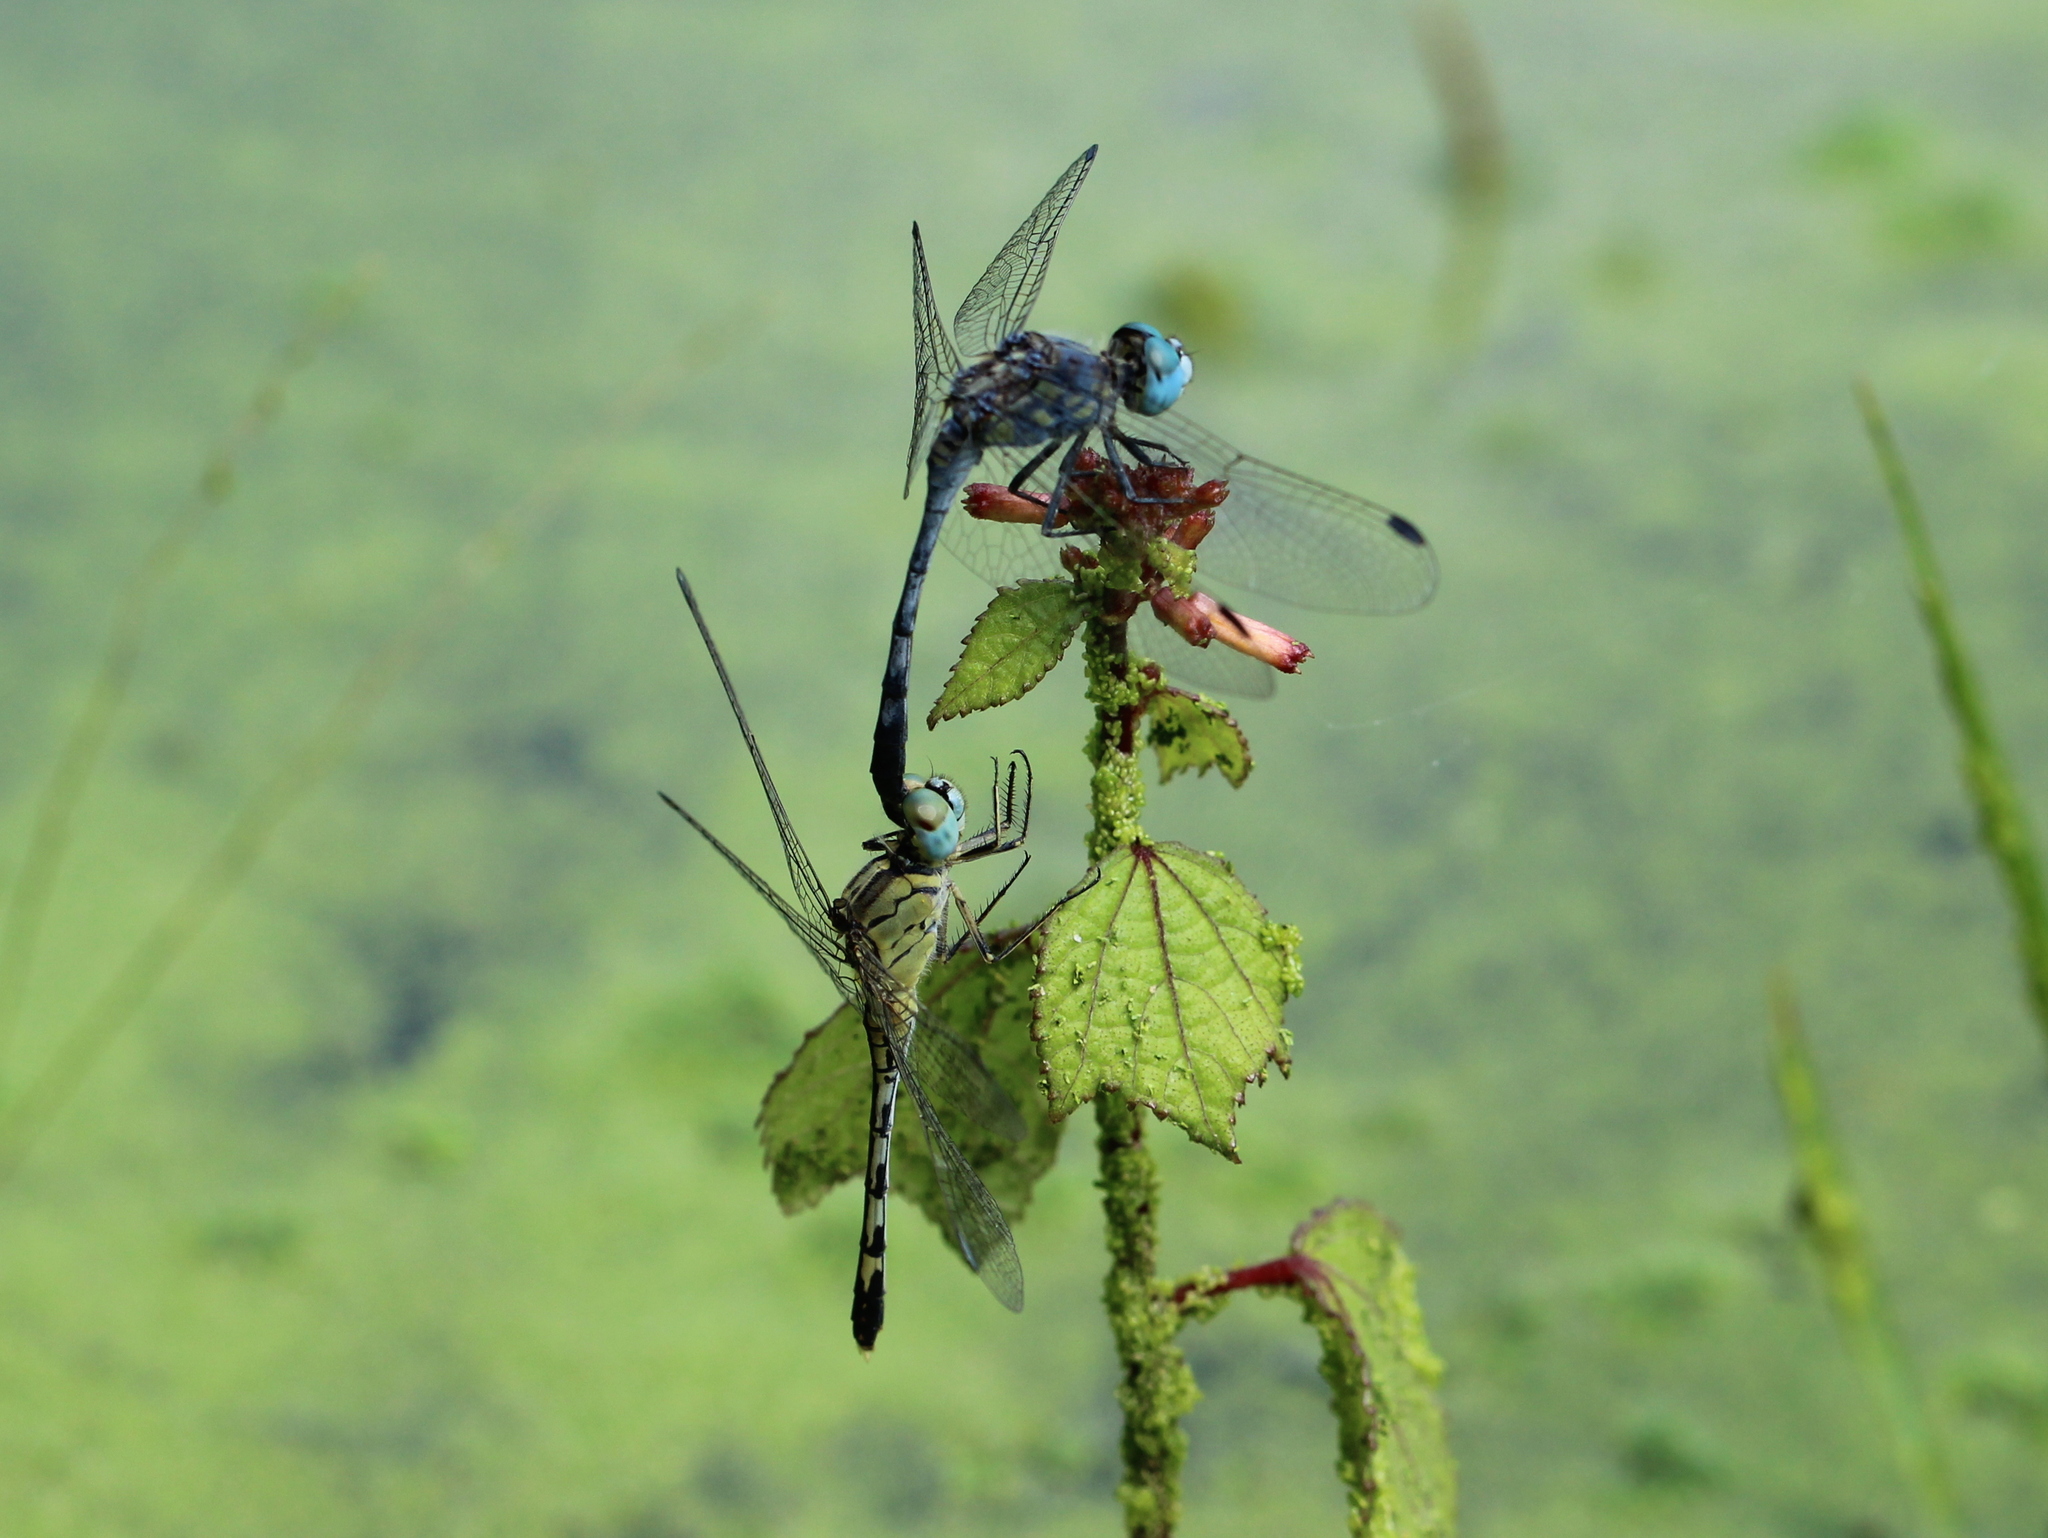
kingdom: Animalia
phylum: Arthropoda
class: Insecta
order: Odonata
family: Libellulidae
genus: Diplacodes
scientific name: Diplacodes trivialis
